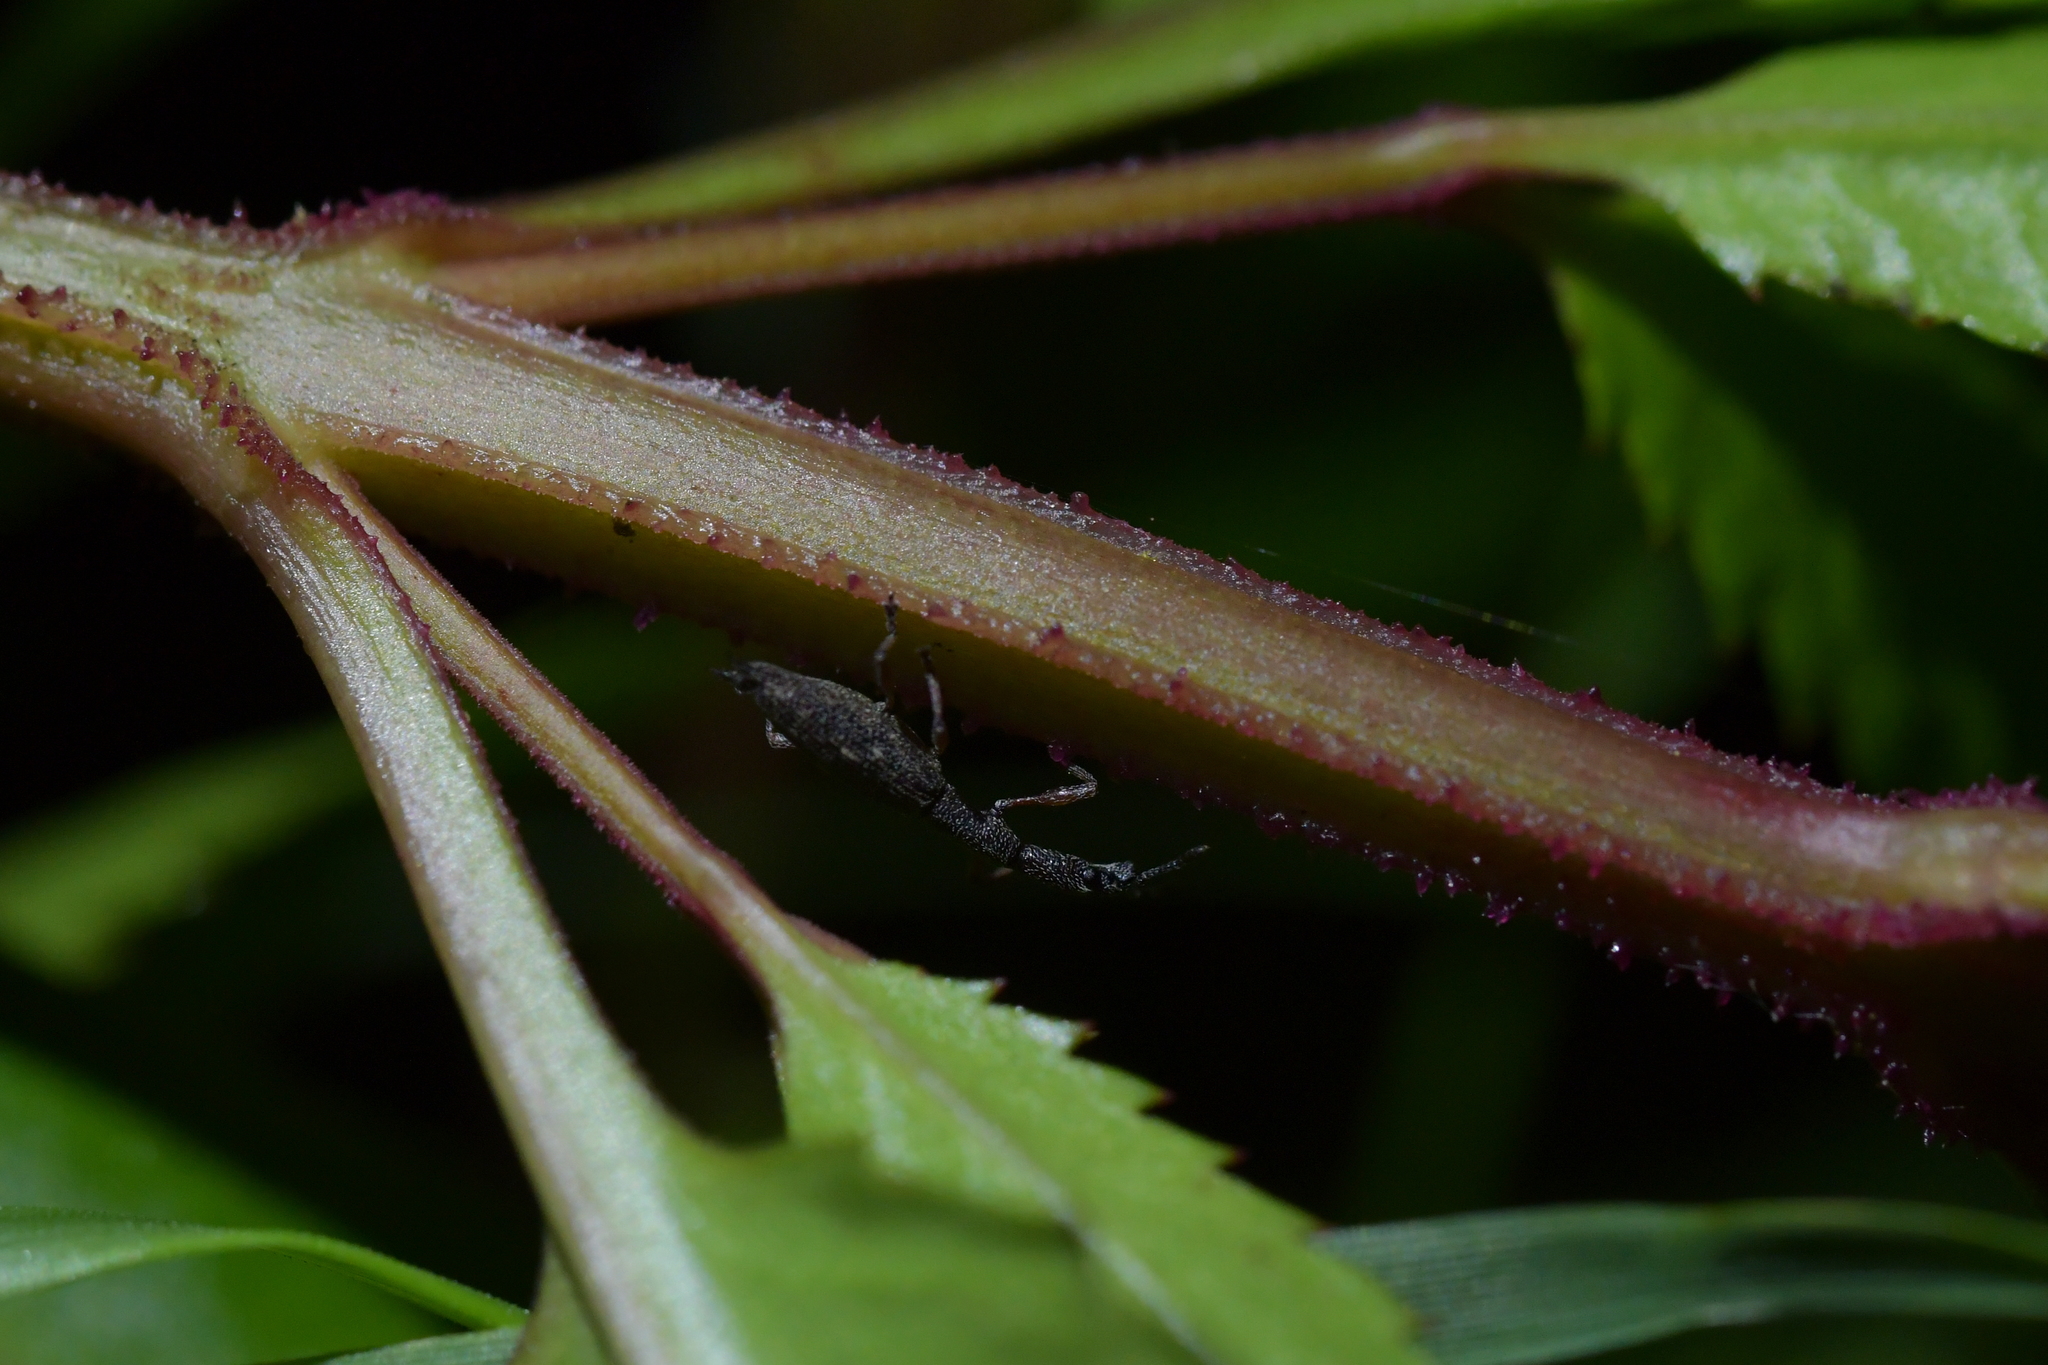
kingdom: Animalia
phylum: Arthropoda
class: Insecta
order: Coleoptera
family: Curculionidae
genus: Rhadinosomus
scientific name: Rhadinosomus acuminatus
